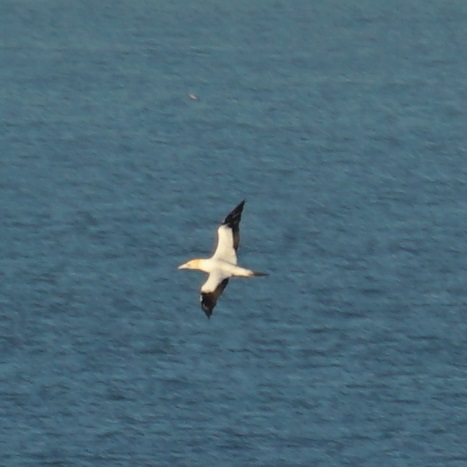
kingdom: Animalia
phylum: Chordata
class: Aves
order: Suliformes
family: Sulidae
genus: Morus
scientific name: Morus serrator
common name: Australasian gannet
